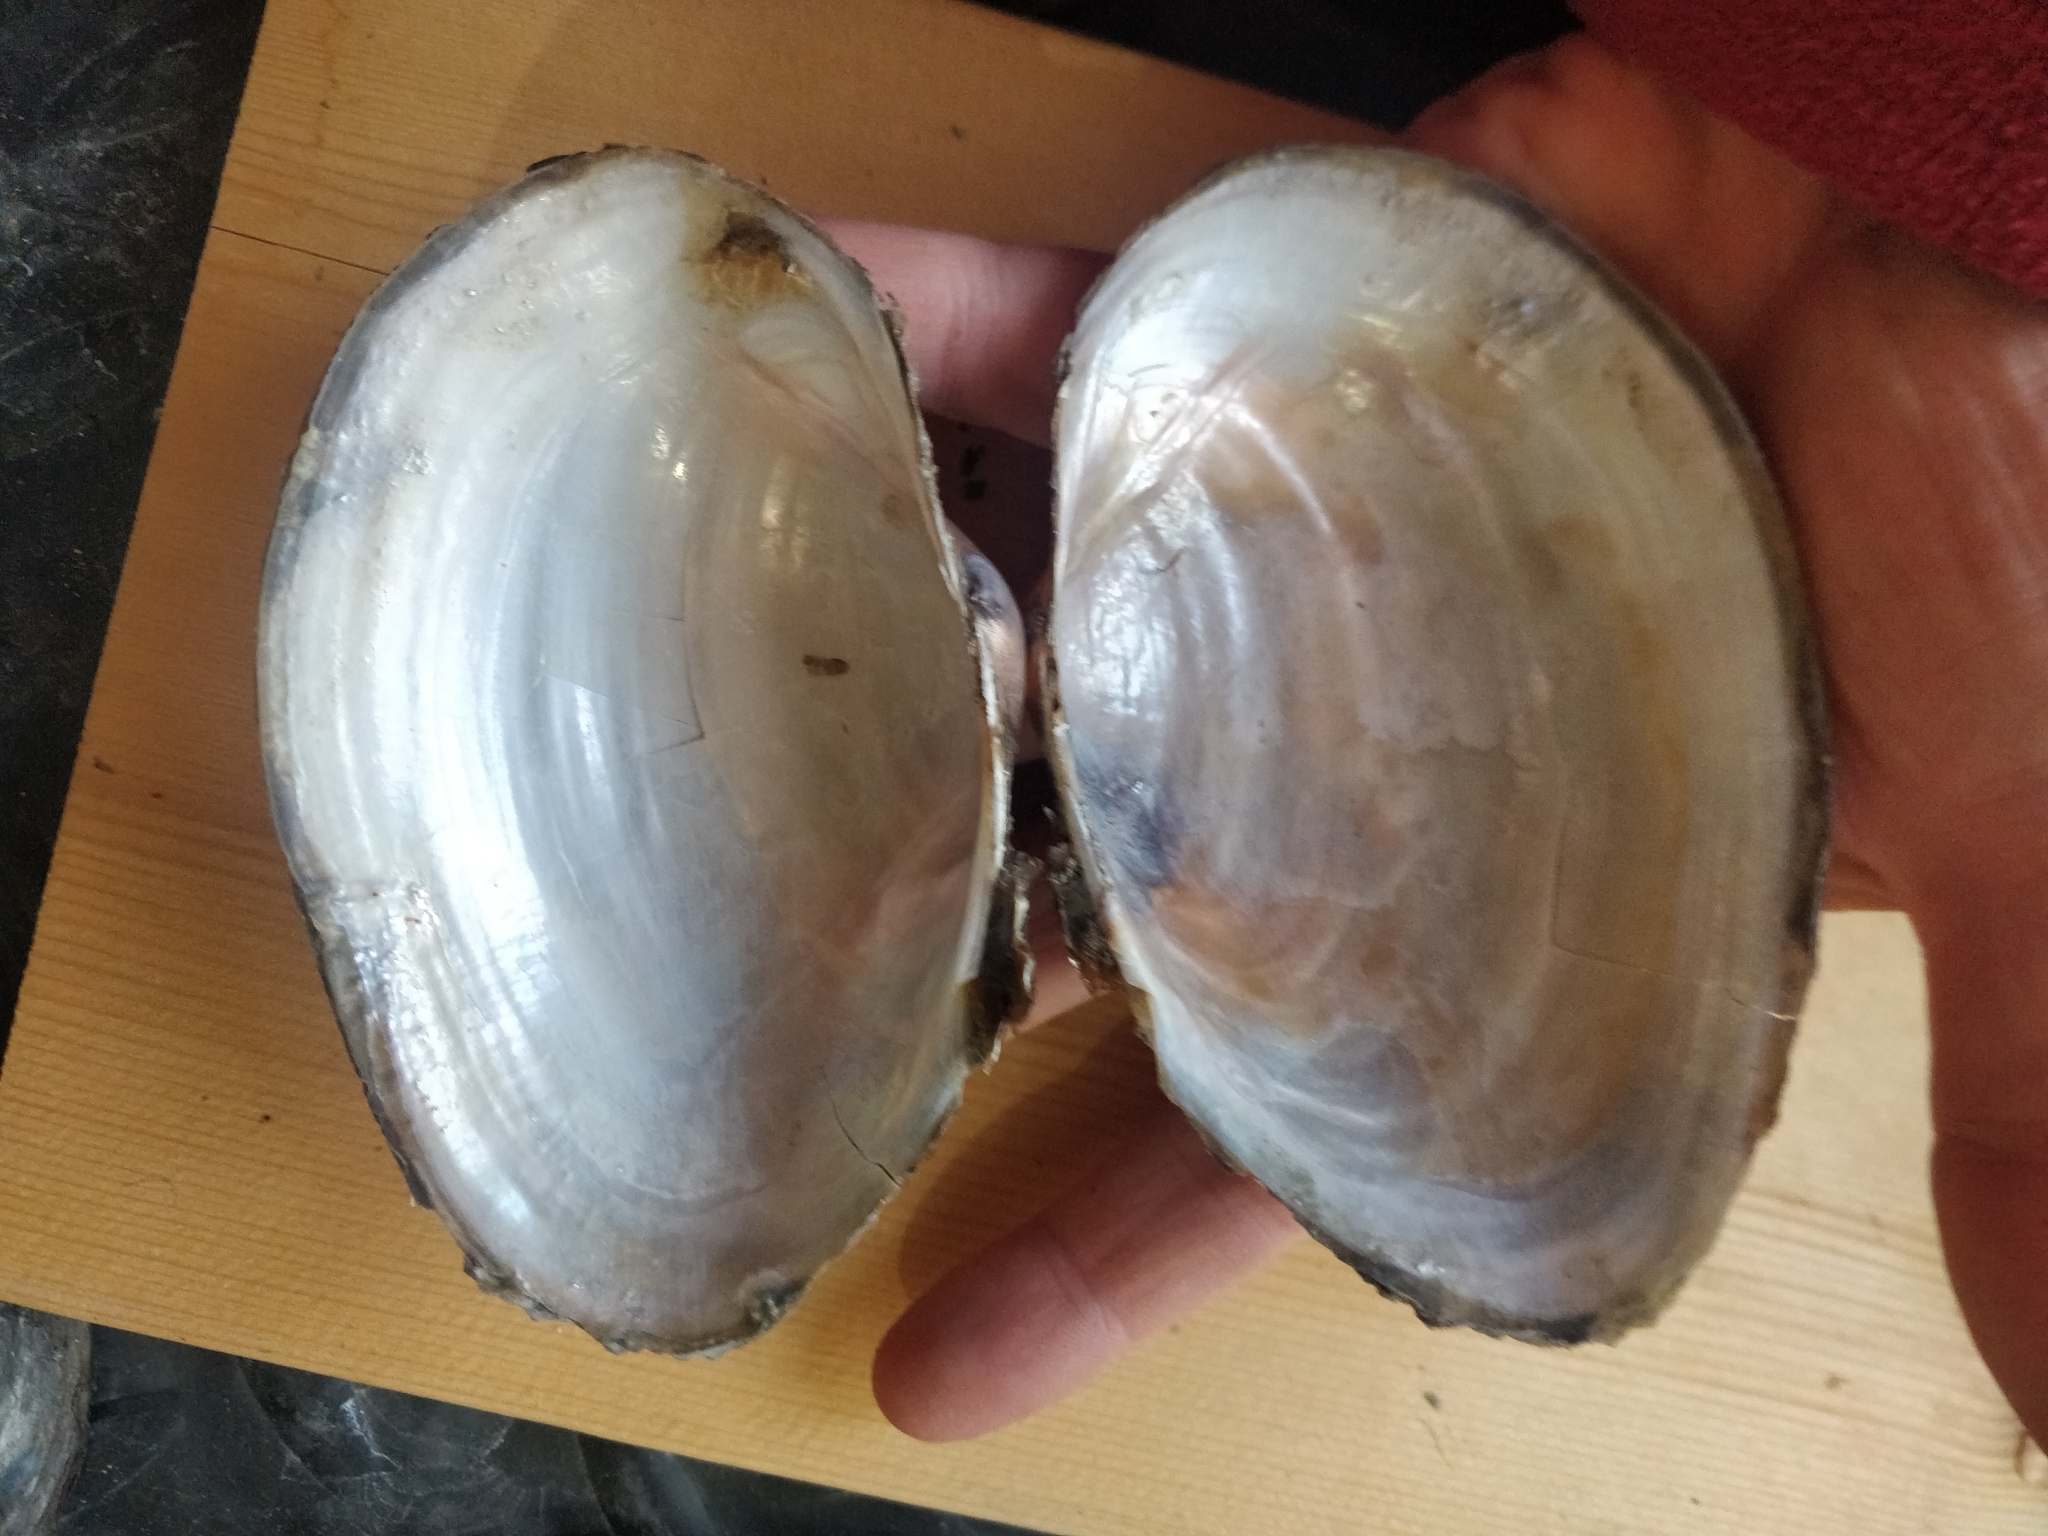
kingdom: Animalia
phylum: Mollusca
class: Bivalvia
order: Unionida
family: Unionidae
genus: Pyganodon
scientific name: Pyganodon grandis
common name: Giant floater
